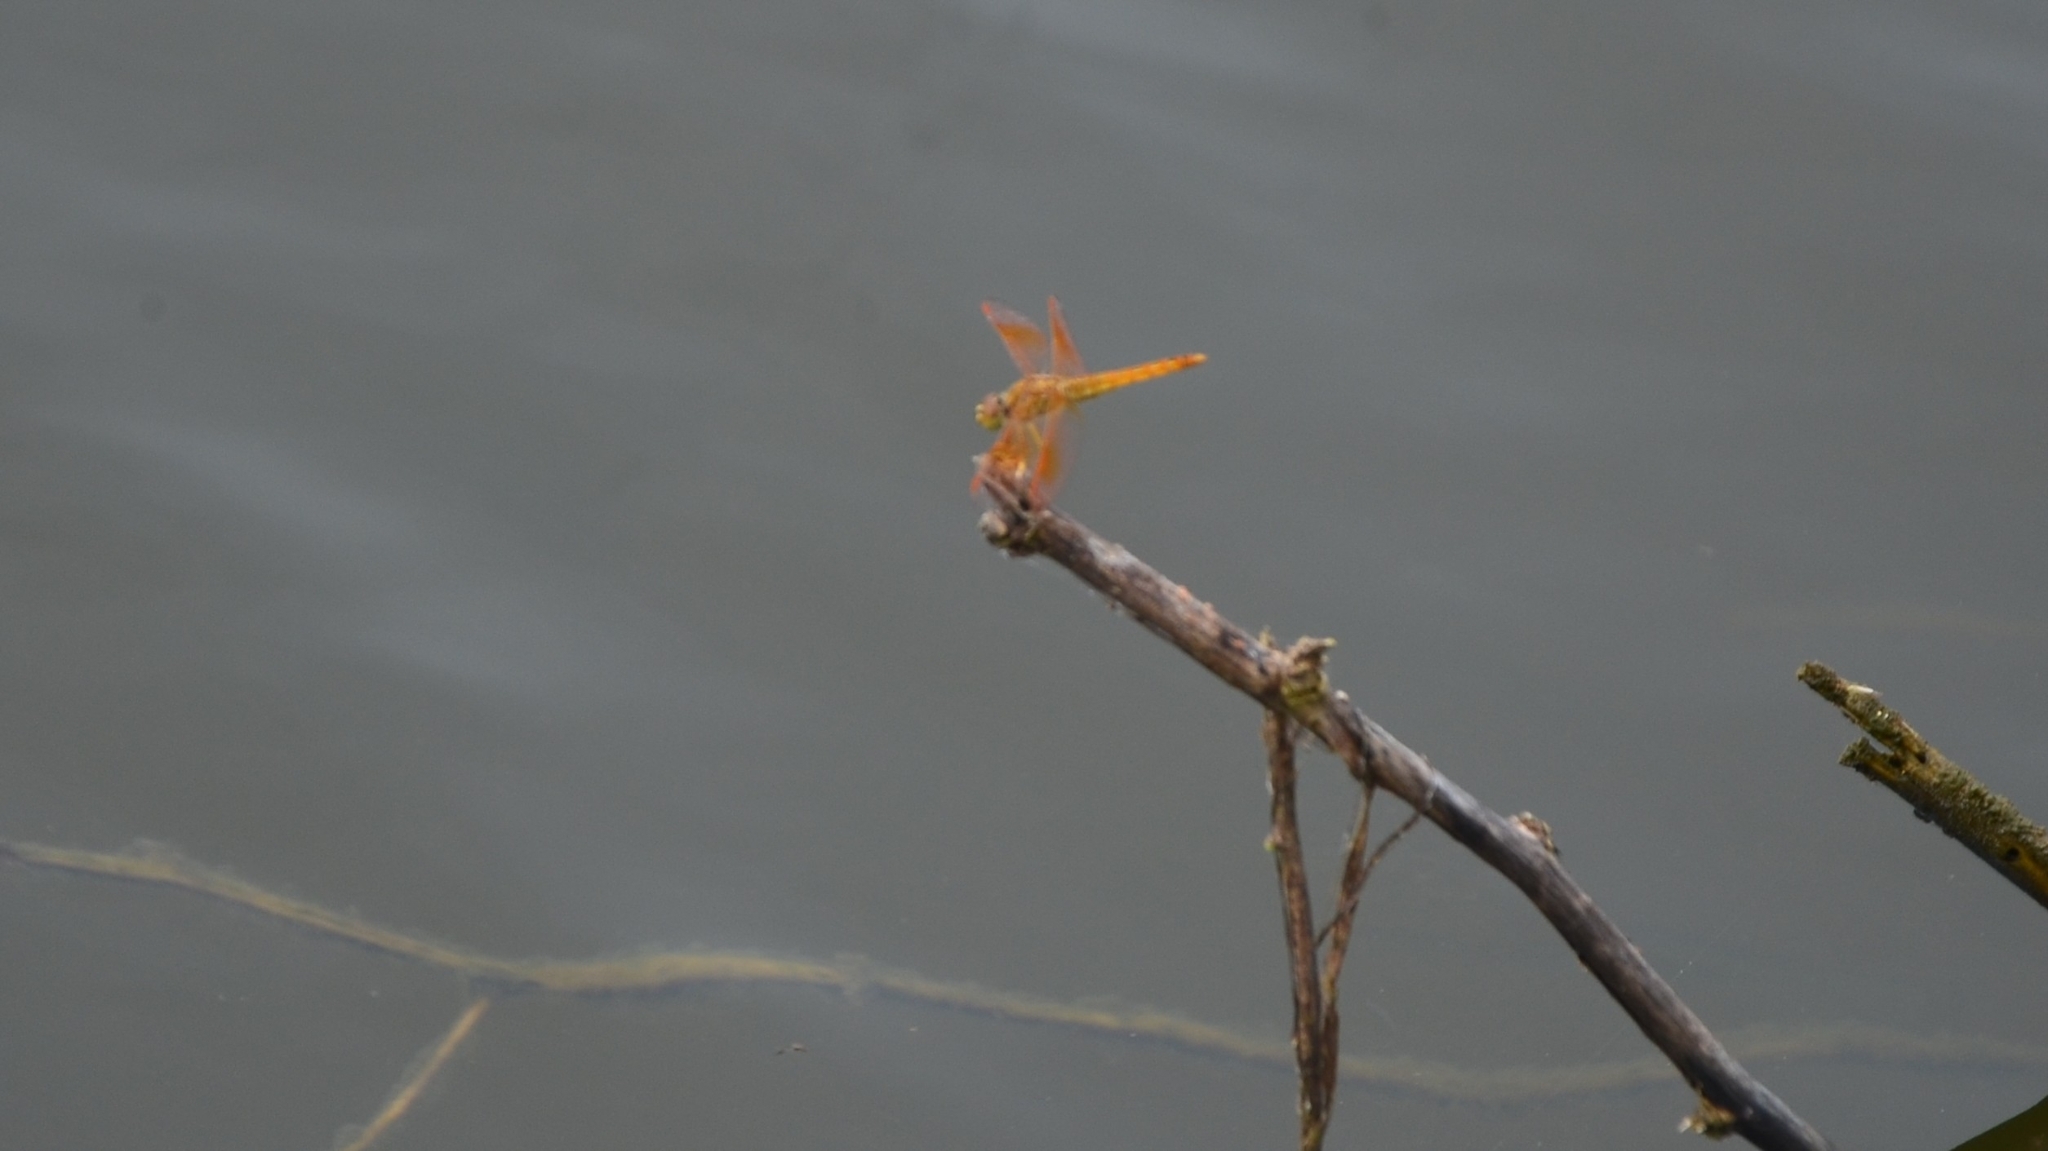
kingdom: Animalia
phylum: Arthropoda
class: Insecta
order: Odonata
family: Libellulidae
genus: Brachythemis
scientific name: Brachythemis contaminata
